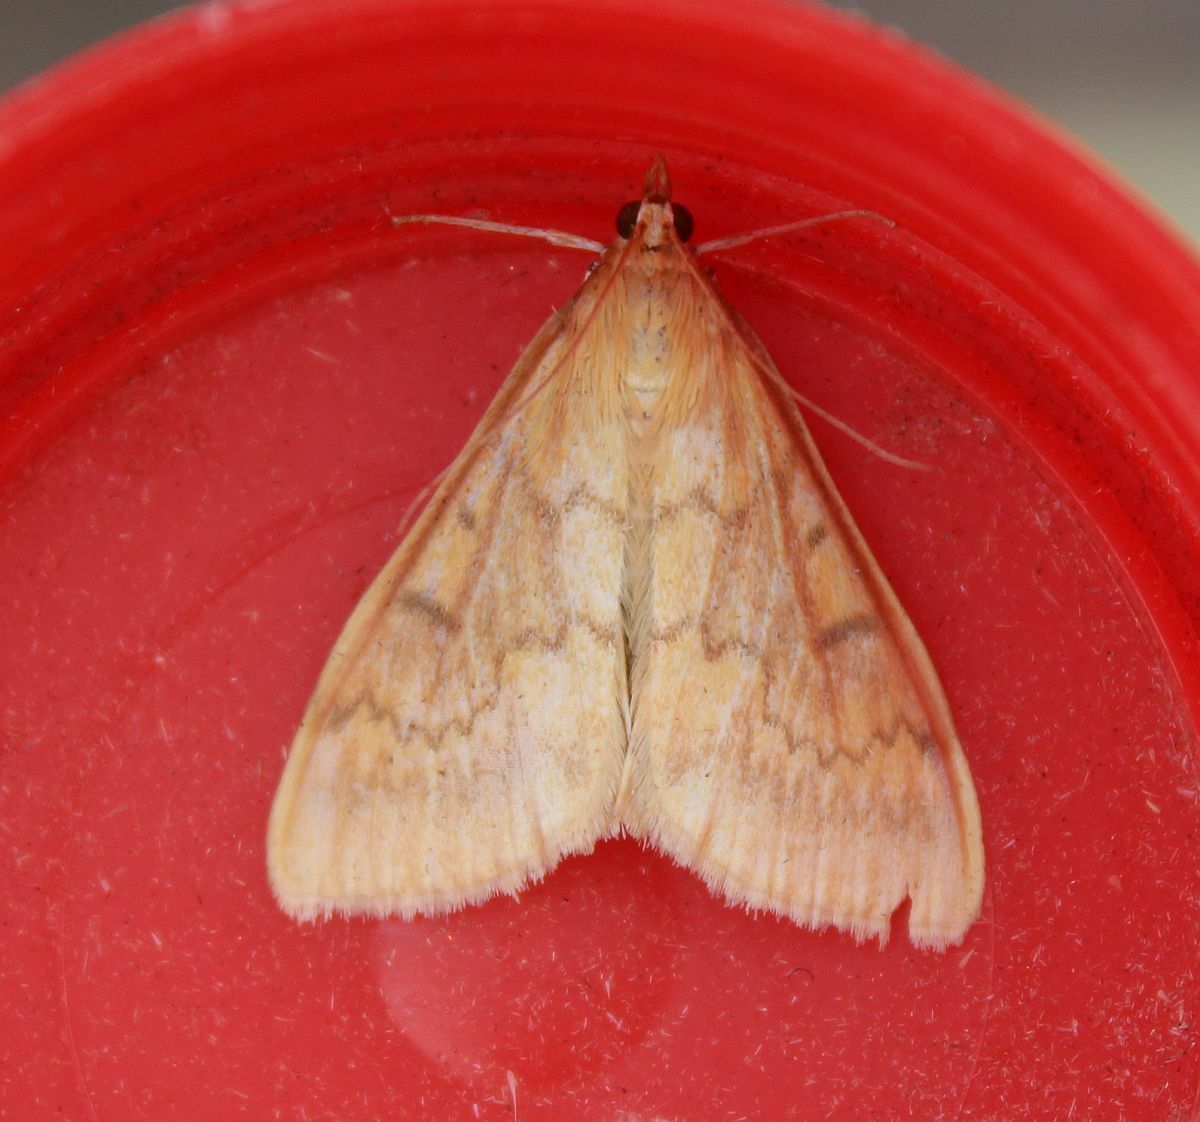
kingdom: Animalia
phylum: Arthropoda
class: Insecta
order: Lepidoptera
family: Crambidae
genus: Ostrinia
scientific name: Ostrinia nubilalis
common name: European corn borer
